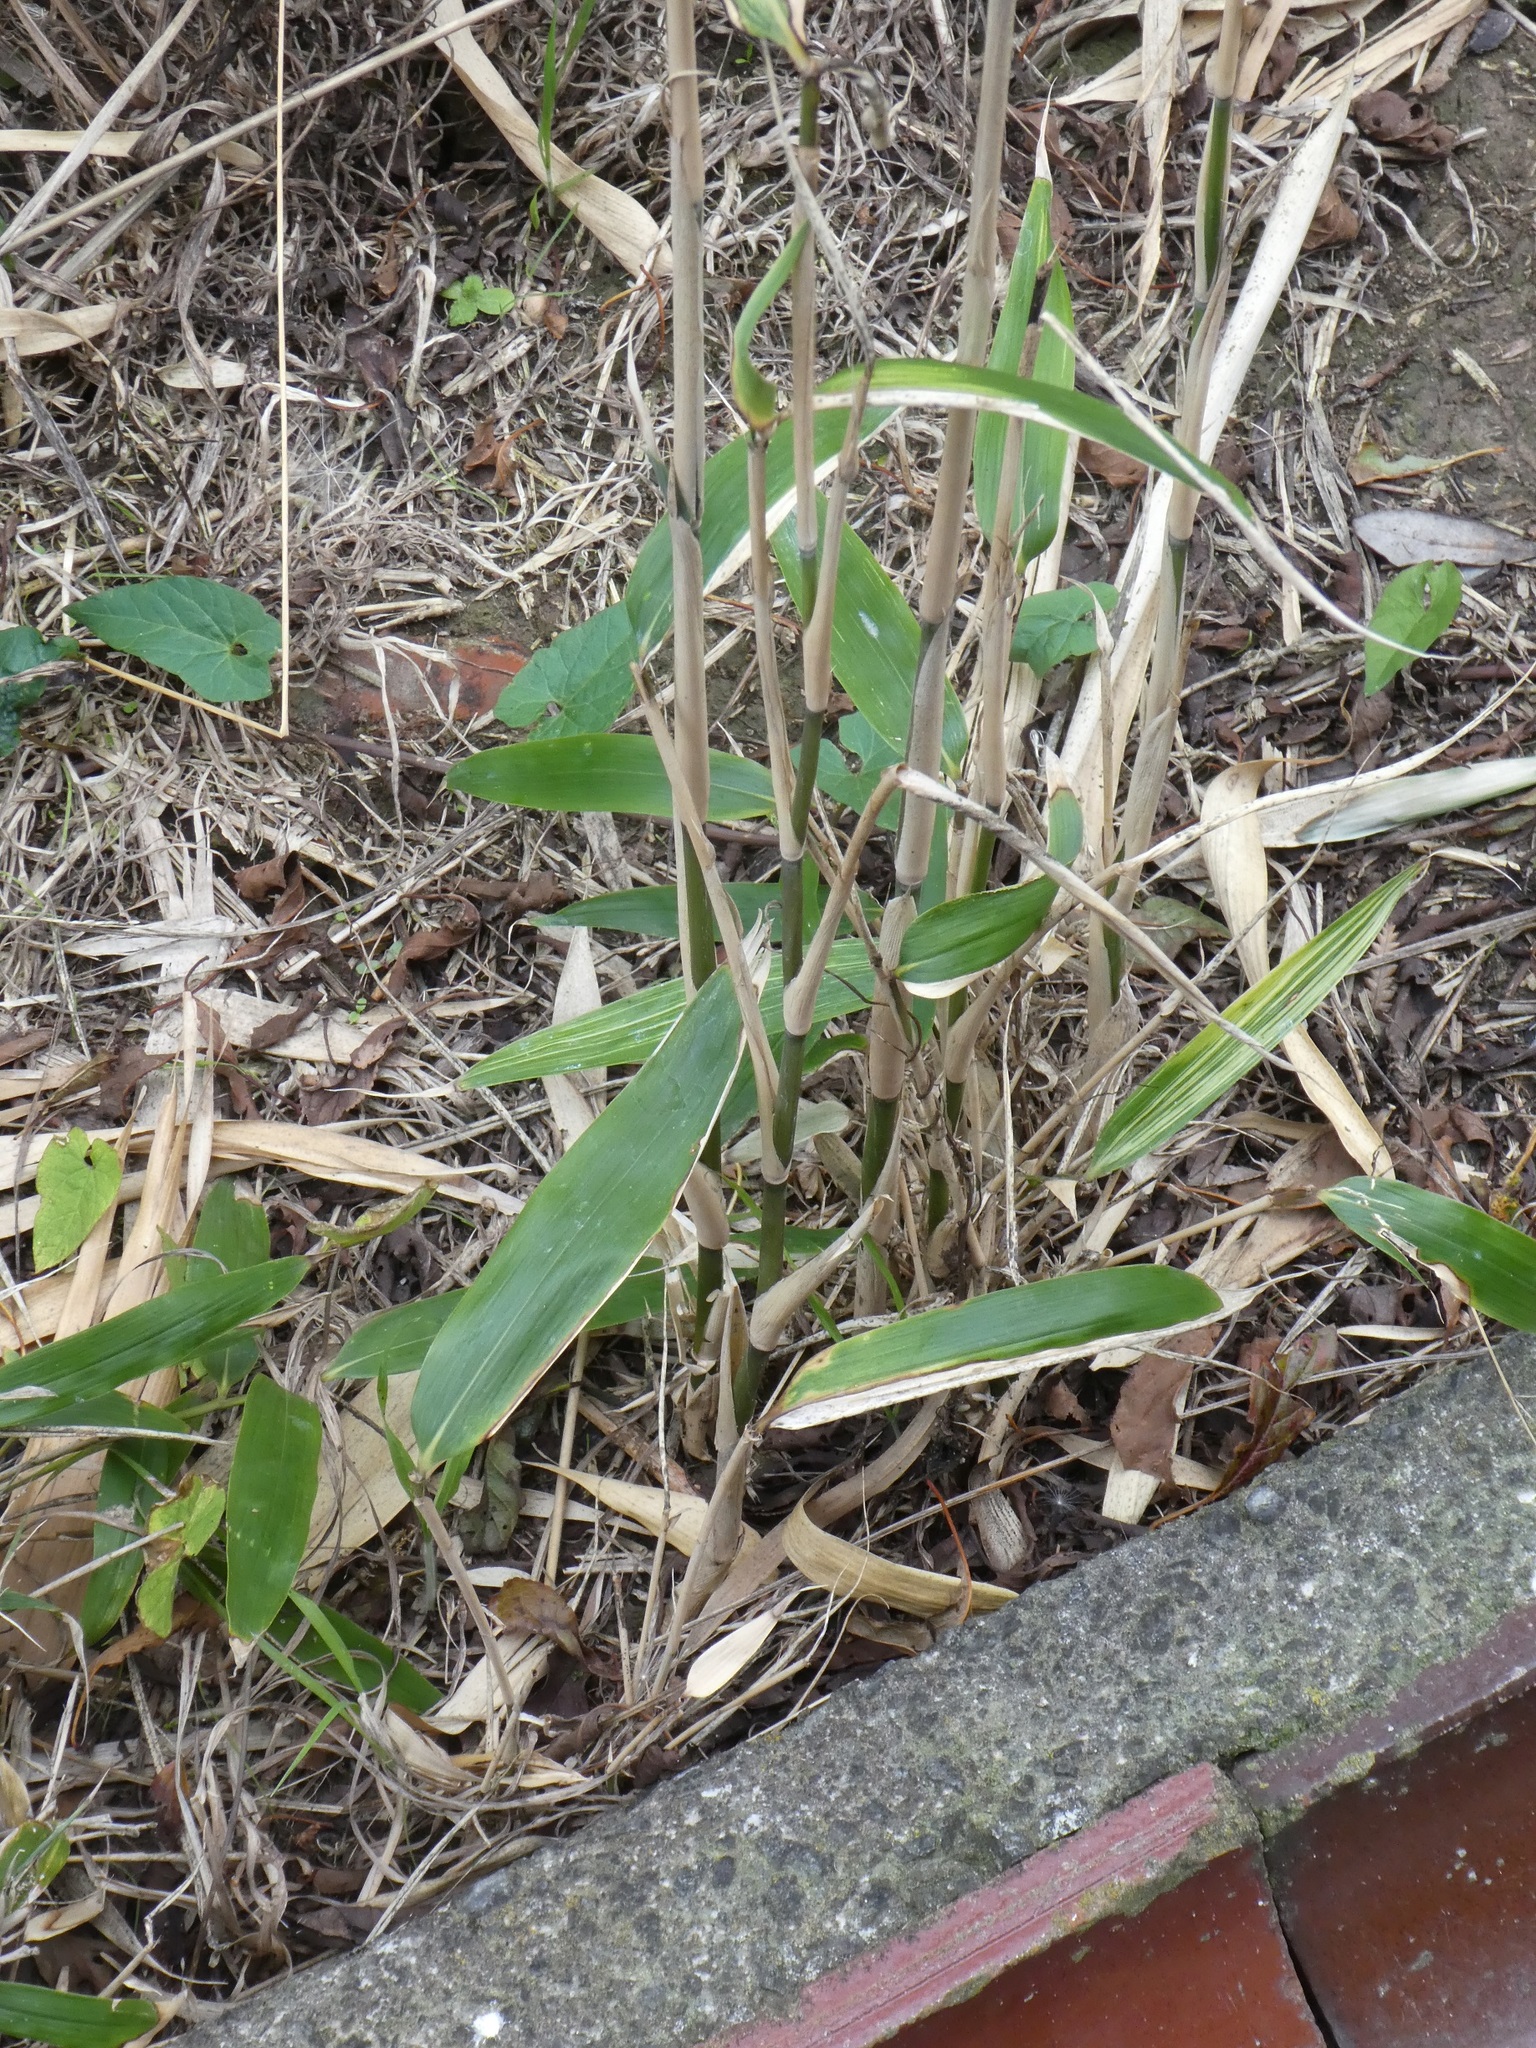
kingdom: Plantae
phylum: Tracheophyta
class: Liliopsida
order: Poales
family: Poaceae
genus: Pseudosasa
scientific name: Pseudosasa japonica
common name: Arrow bamboo
